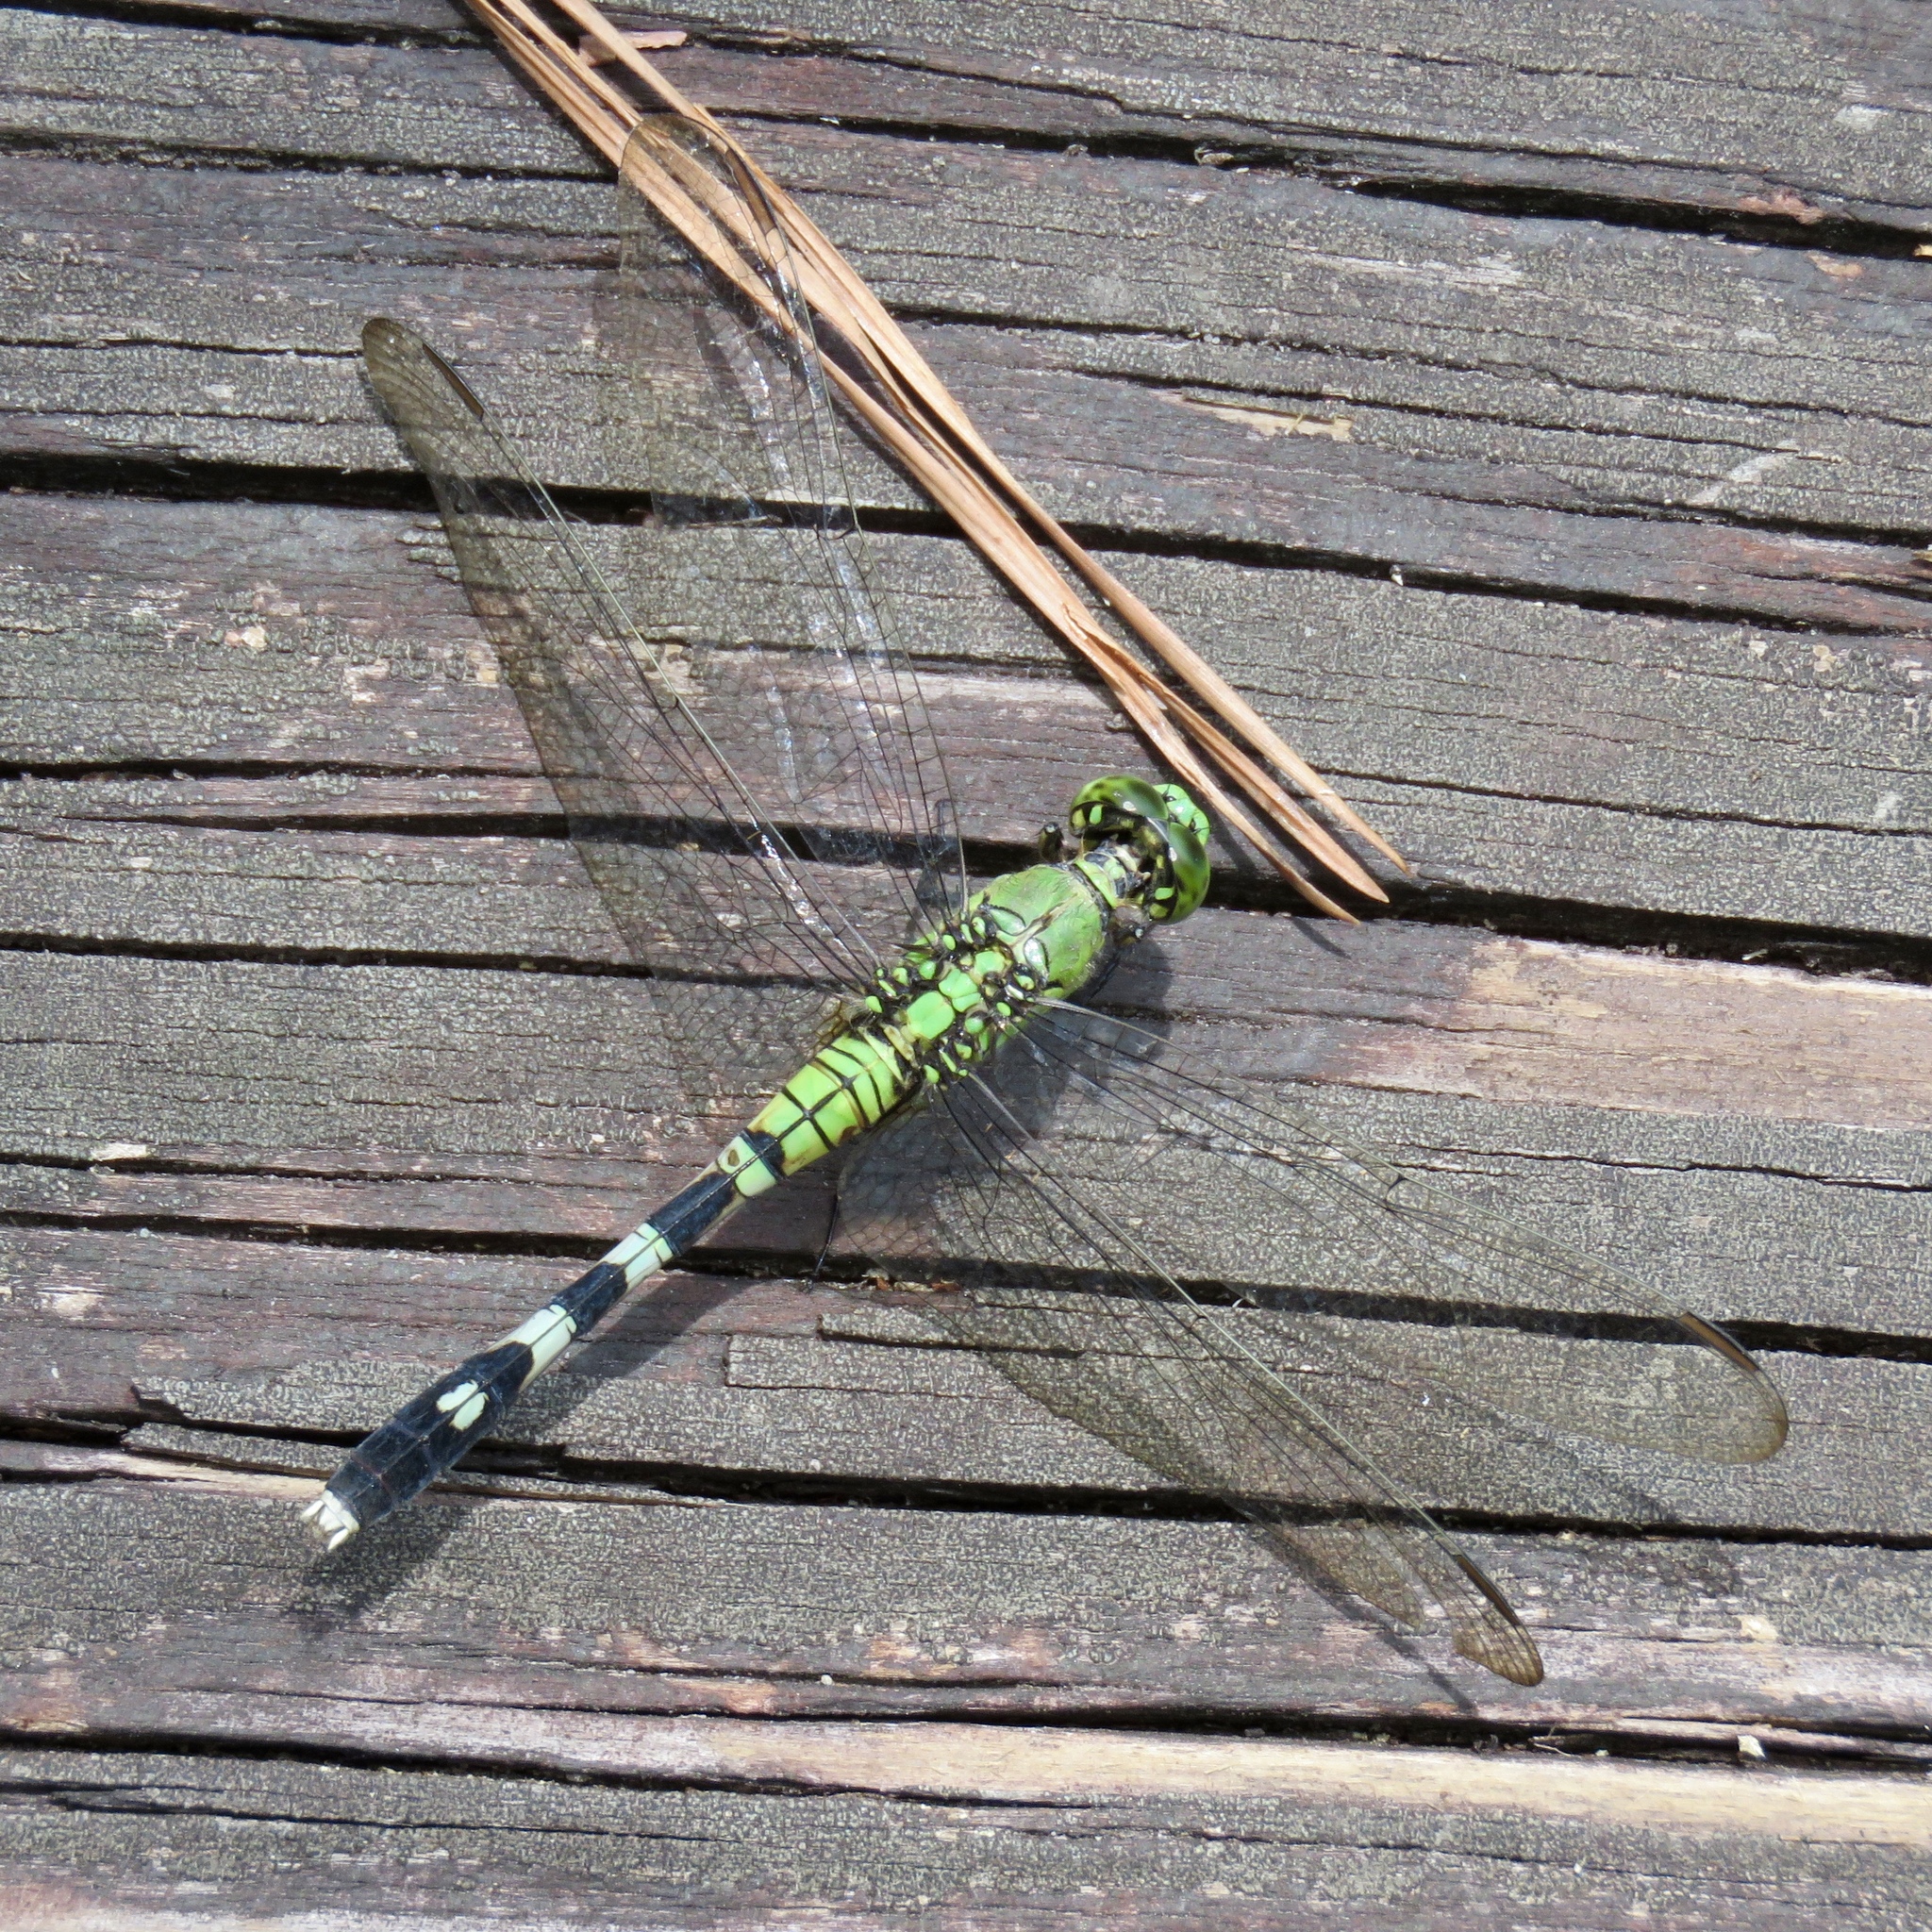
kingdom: Animalia
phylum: Arthropoda
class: Insecta
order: Odonata
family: Libellulidae
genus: Erythemis
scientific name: Erythemis simplicicollis
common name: Eastern pondhawk
